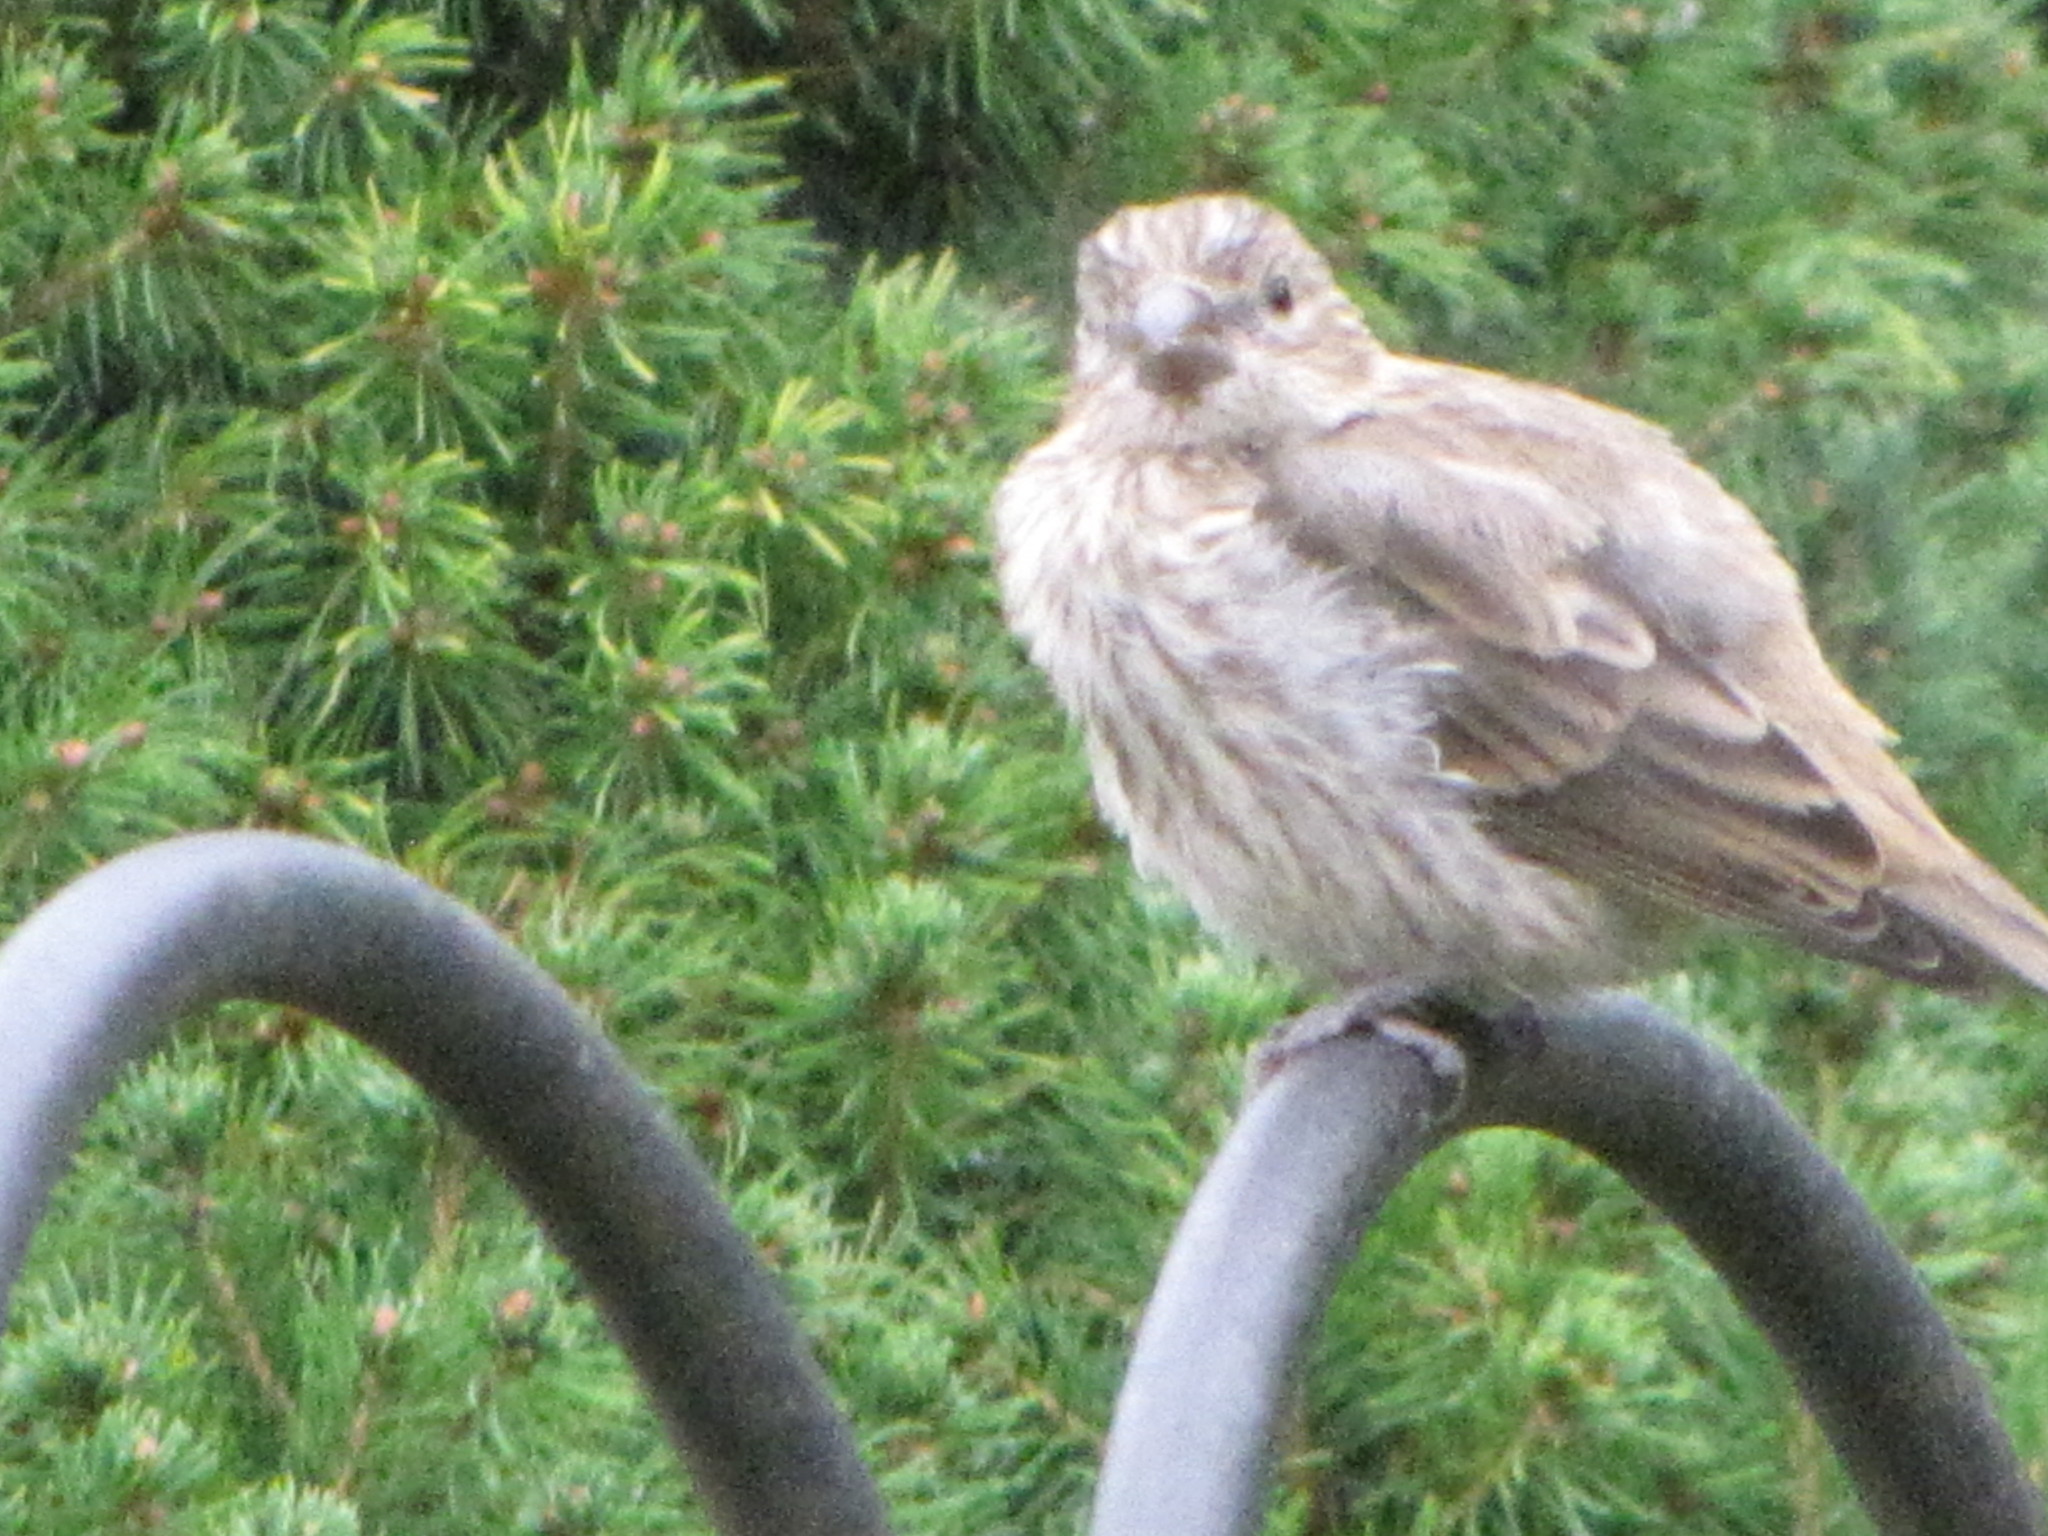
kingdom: Animalia
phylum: Chordata
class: Aves
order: Passeriformes
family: Fringillidae
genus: Haemorhous
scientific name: Haemorhous mexicanus
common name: House finch
